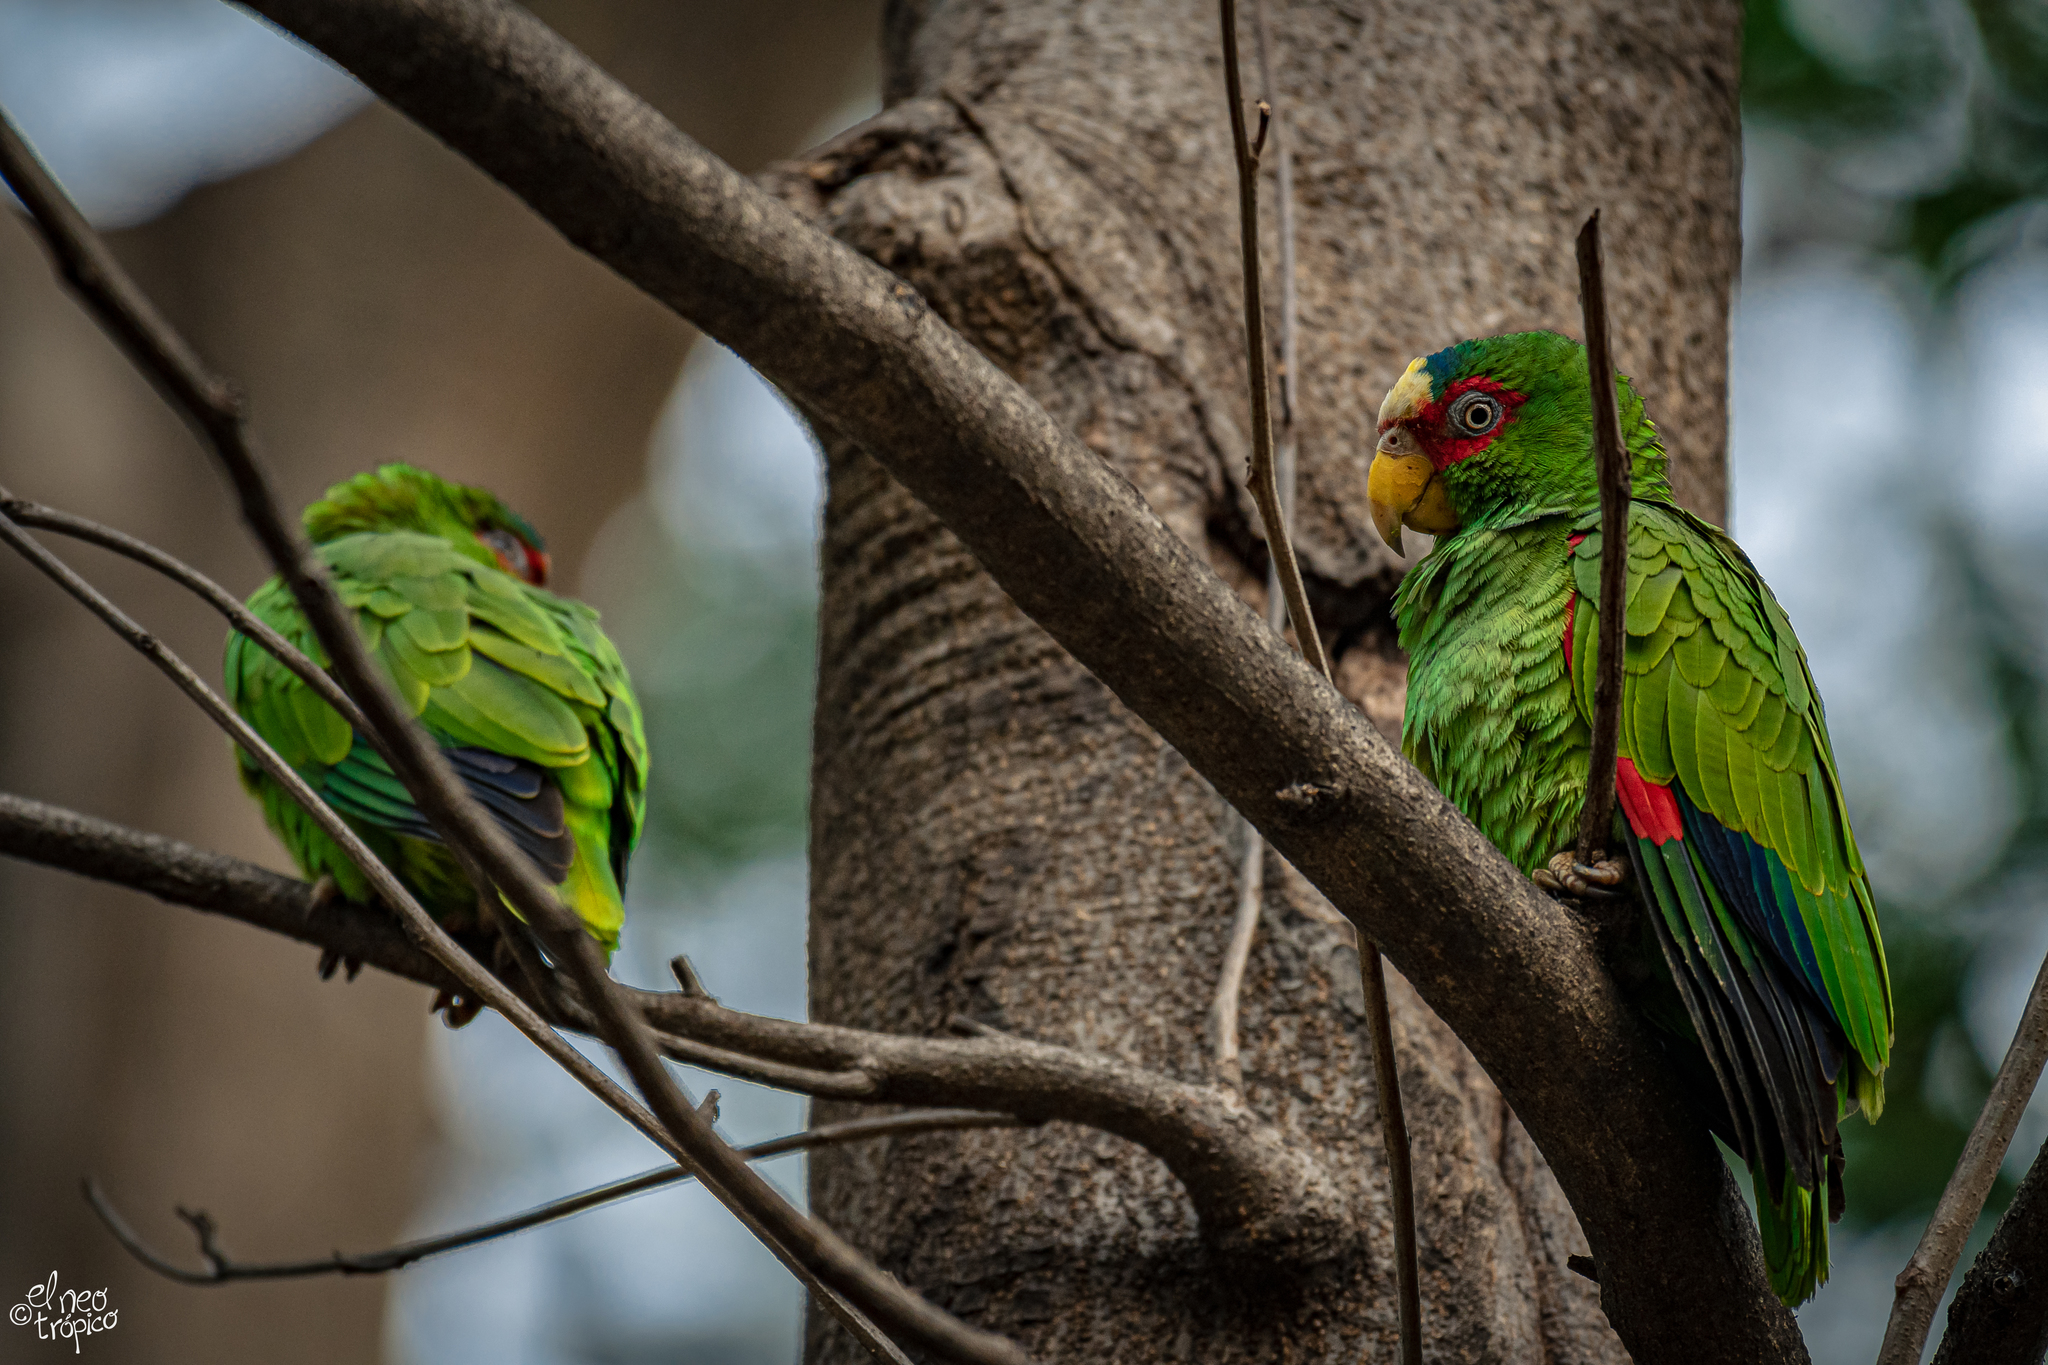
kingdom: Animalia
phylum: Chordata
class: Aves
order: Psittaciformes
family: Psittacidae
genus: Amazona
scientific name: Amazona albifrons
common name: White-fronted amazon
